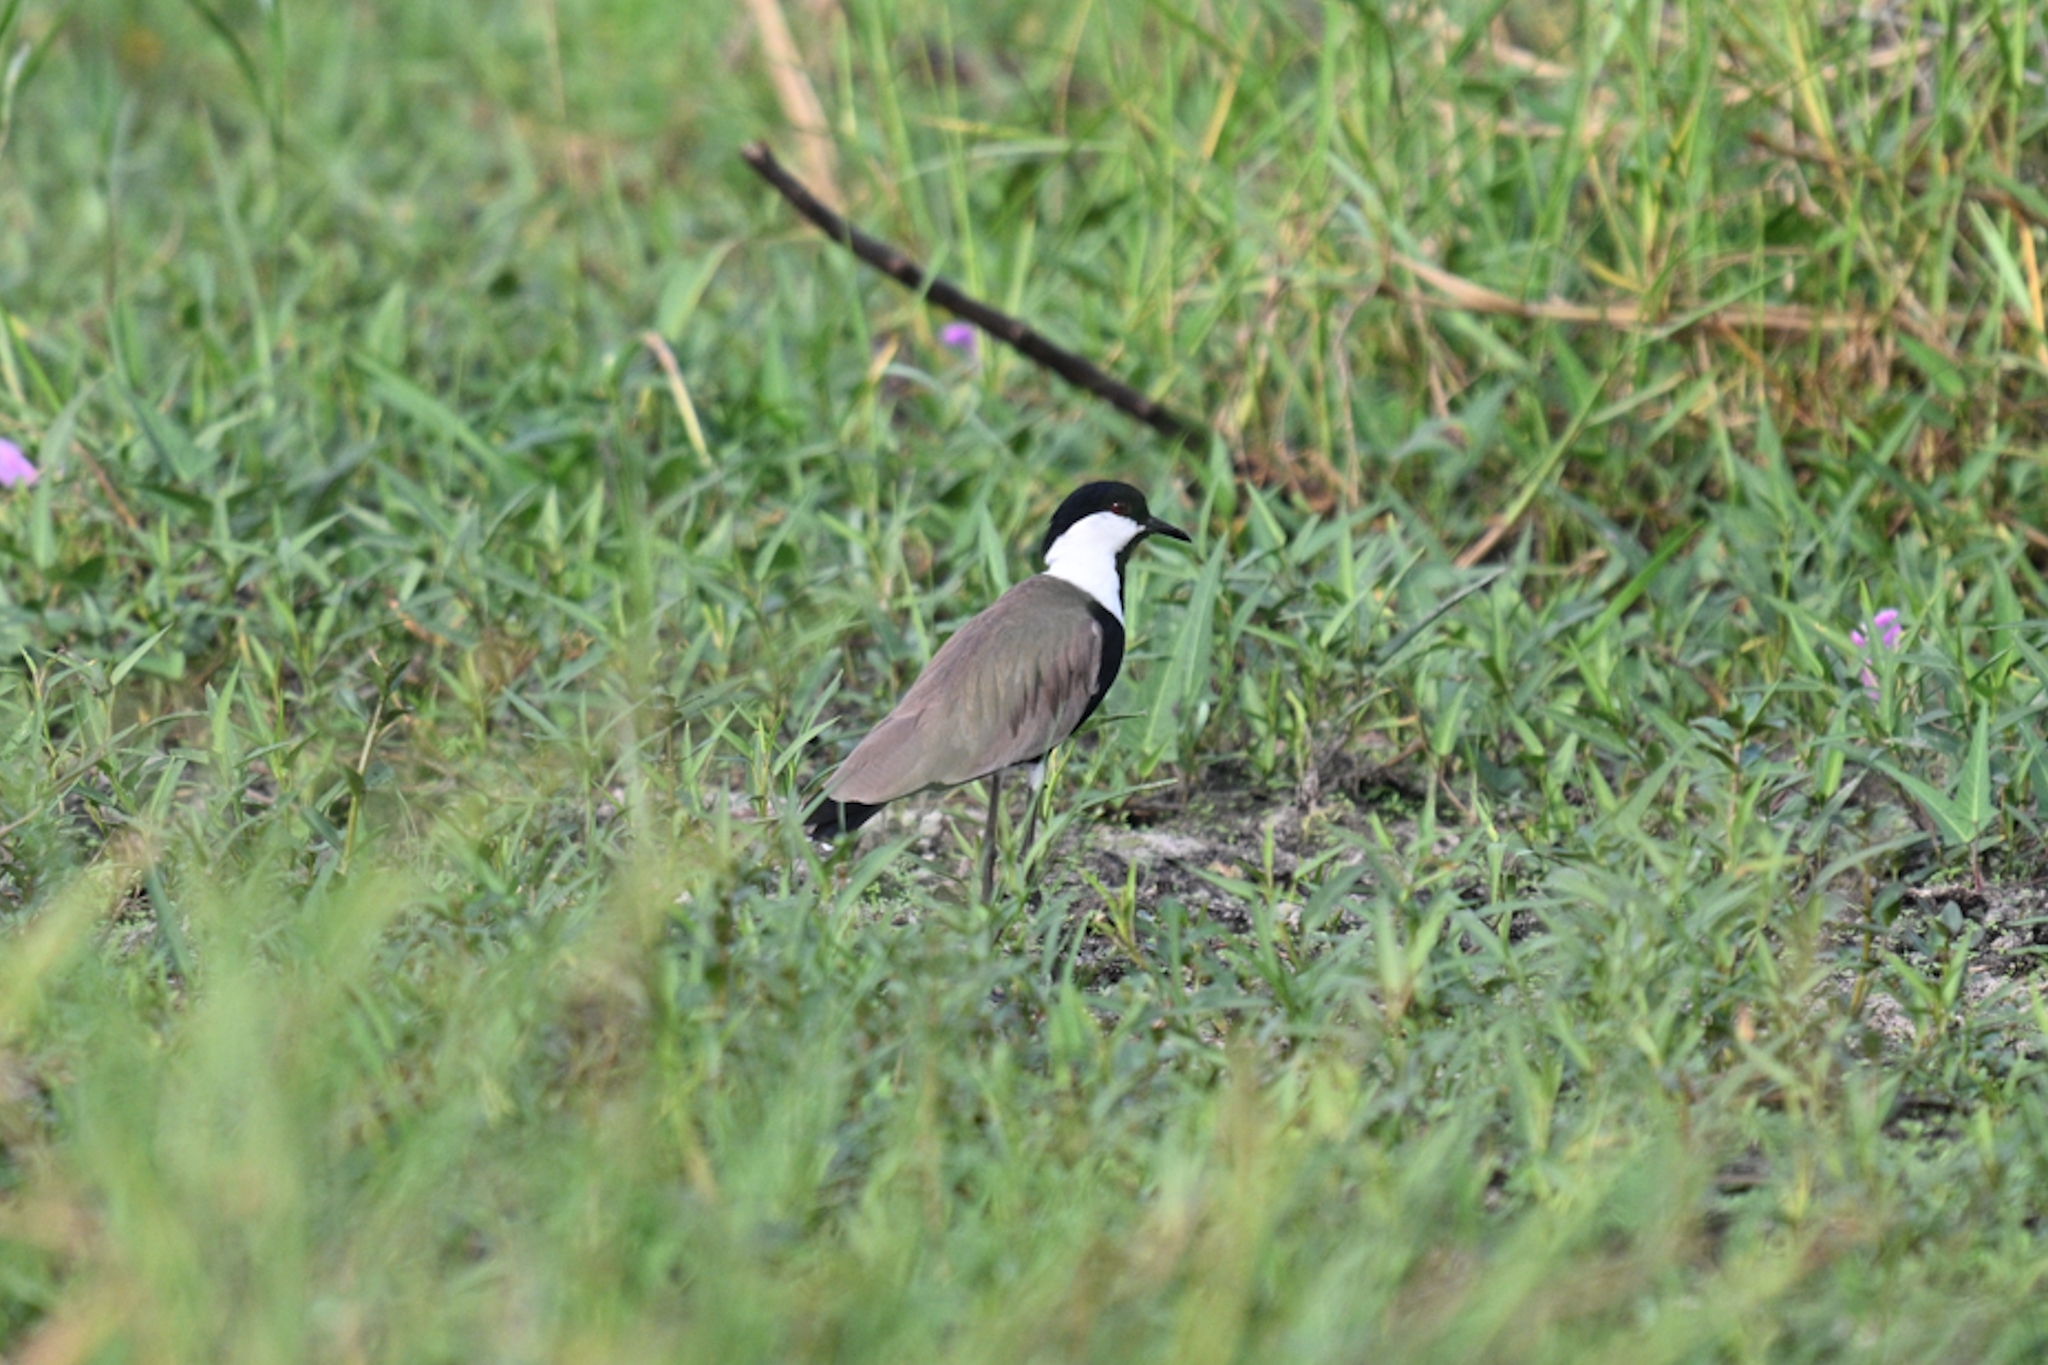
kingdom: Animalia
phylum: Chordata
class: Aves
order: Charadriiformes
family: Charadriidae
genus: Vanellus
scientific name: Vanellus spinosus
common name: Spur-winged lapwing
